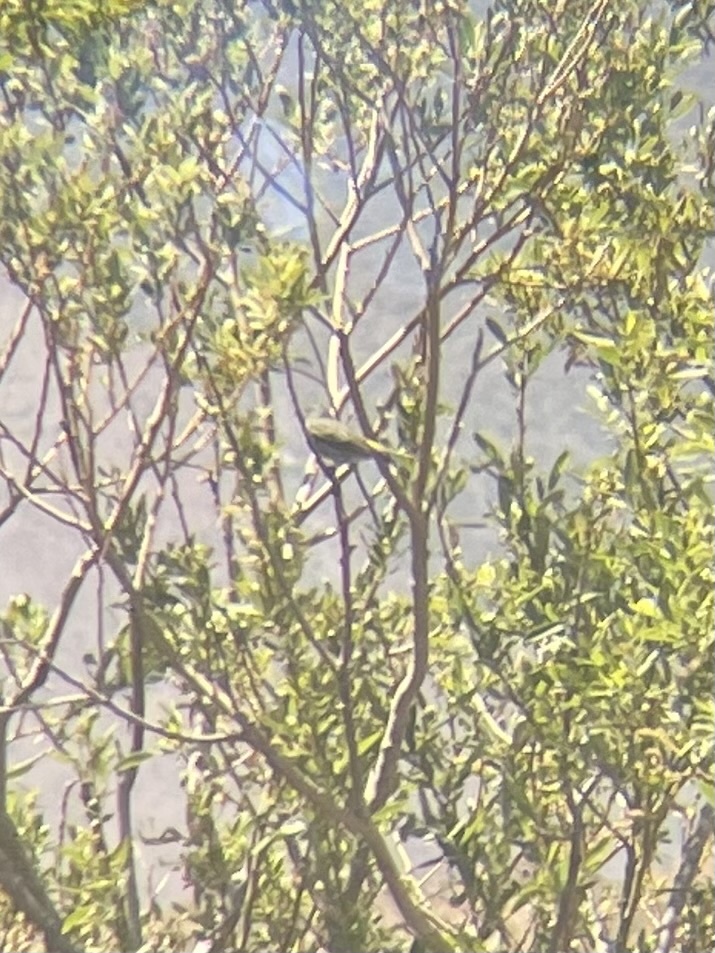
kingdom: Animalia
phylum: Chordata
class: Aves
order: Passeriformes
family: Parulidae
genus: Setophaga
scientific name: Setophaga coronata
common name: Myrtle warbler
